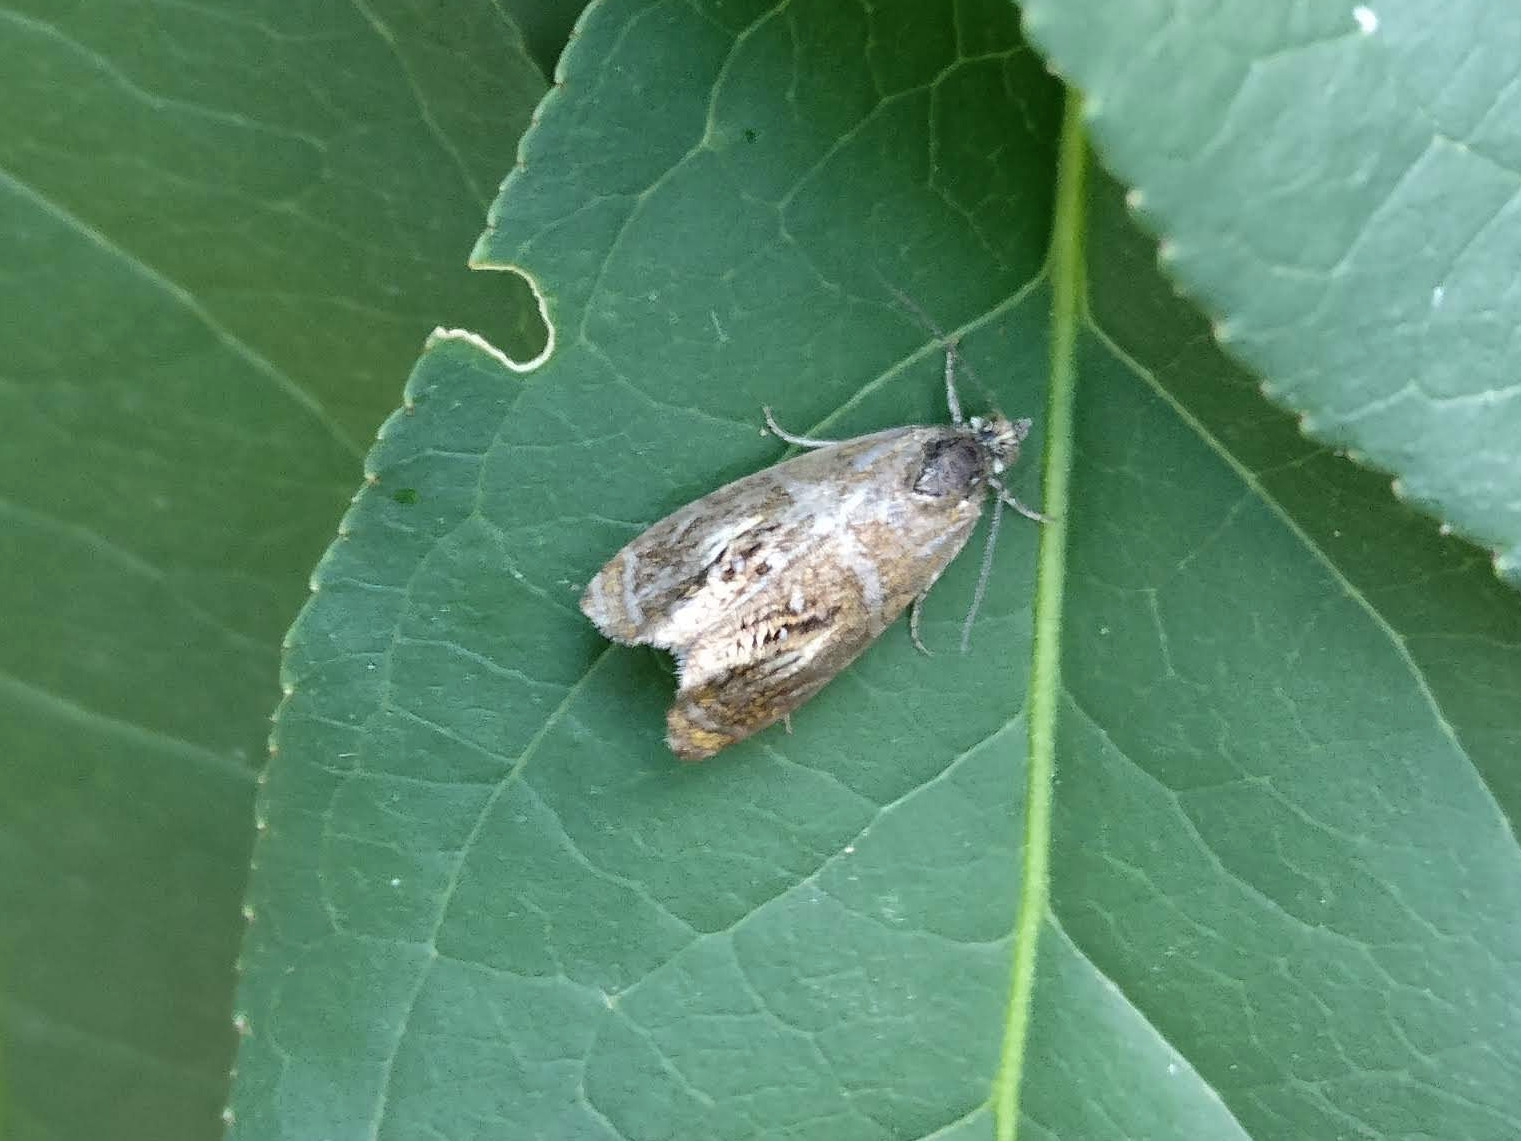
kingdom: Animalia
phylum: Arthropoda
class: Insecta
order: Lepidoptera
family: Tortricidae
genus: Olethreutes
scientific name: Olethreutes arcuella
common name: Arched marble
